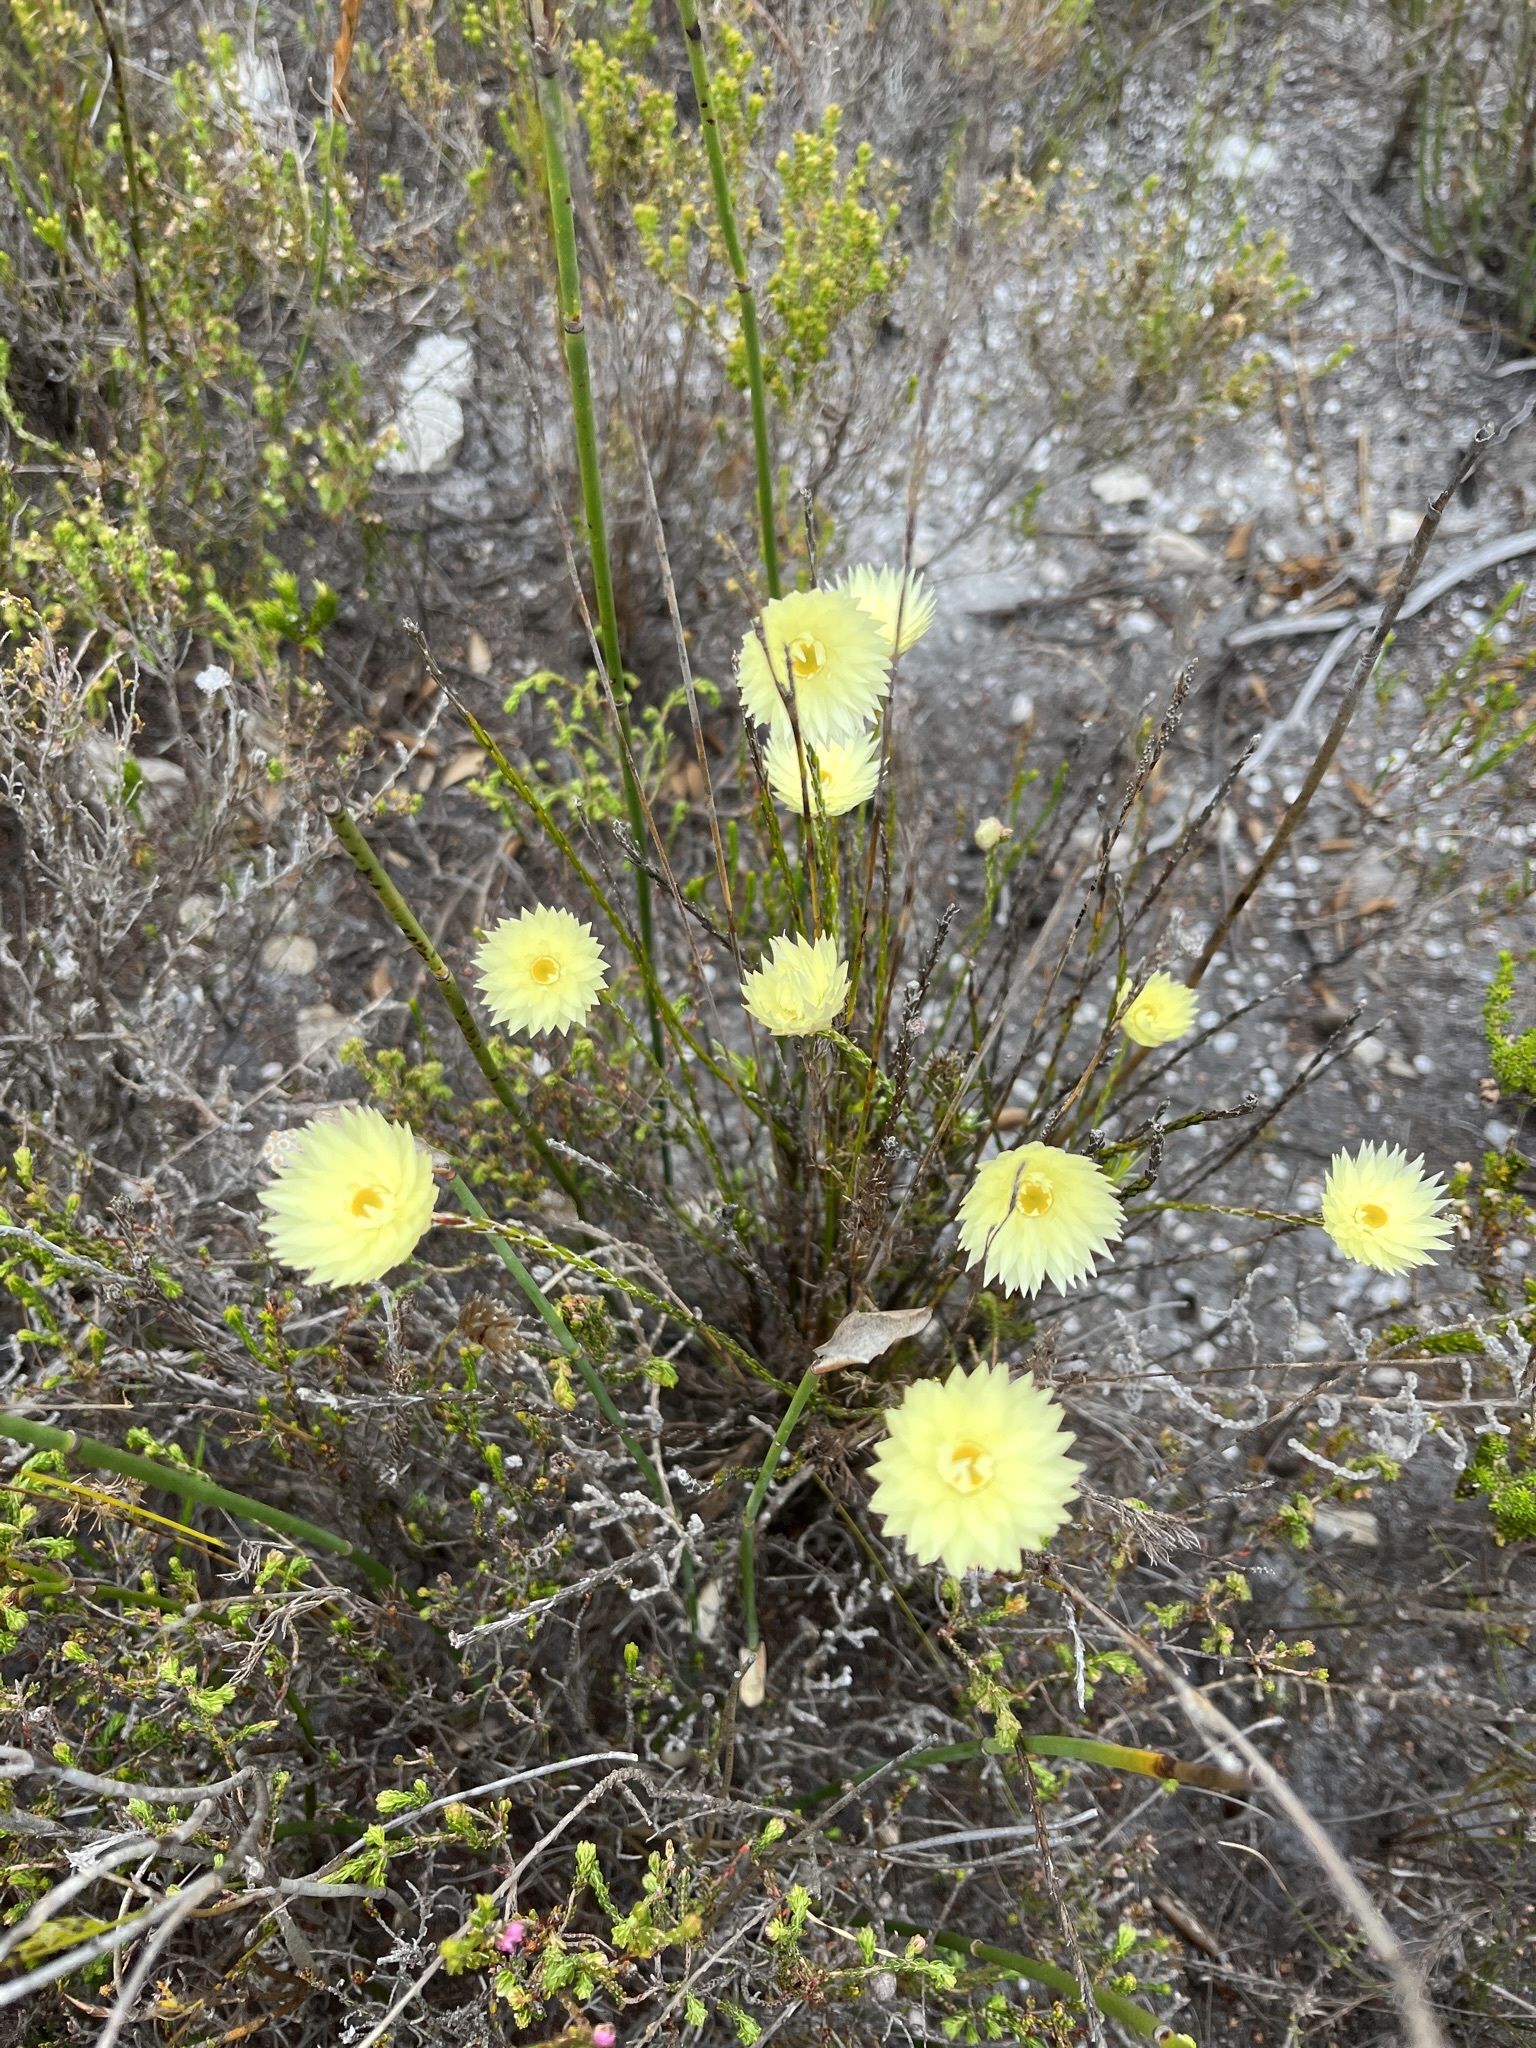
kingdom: Plantae
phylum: Tracheophyta
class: Magnoliopsida
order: Asterales
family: Asteraceae
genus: Edmondia
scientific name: Edmondia sesamoides
